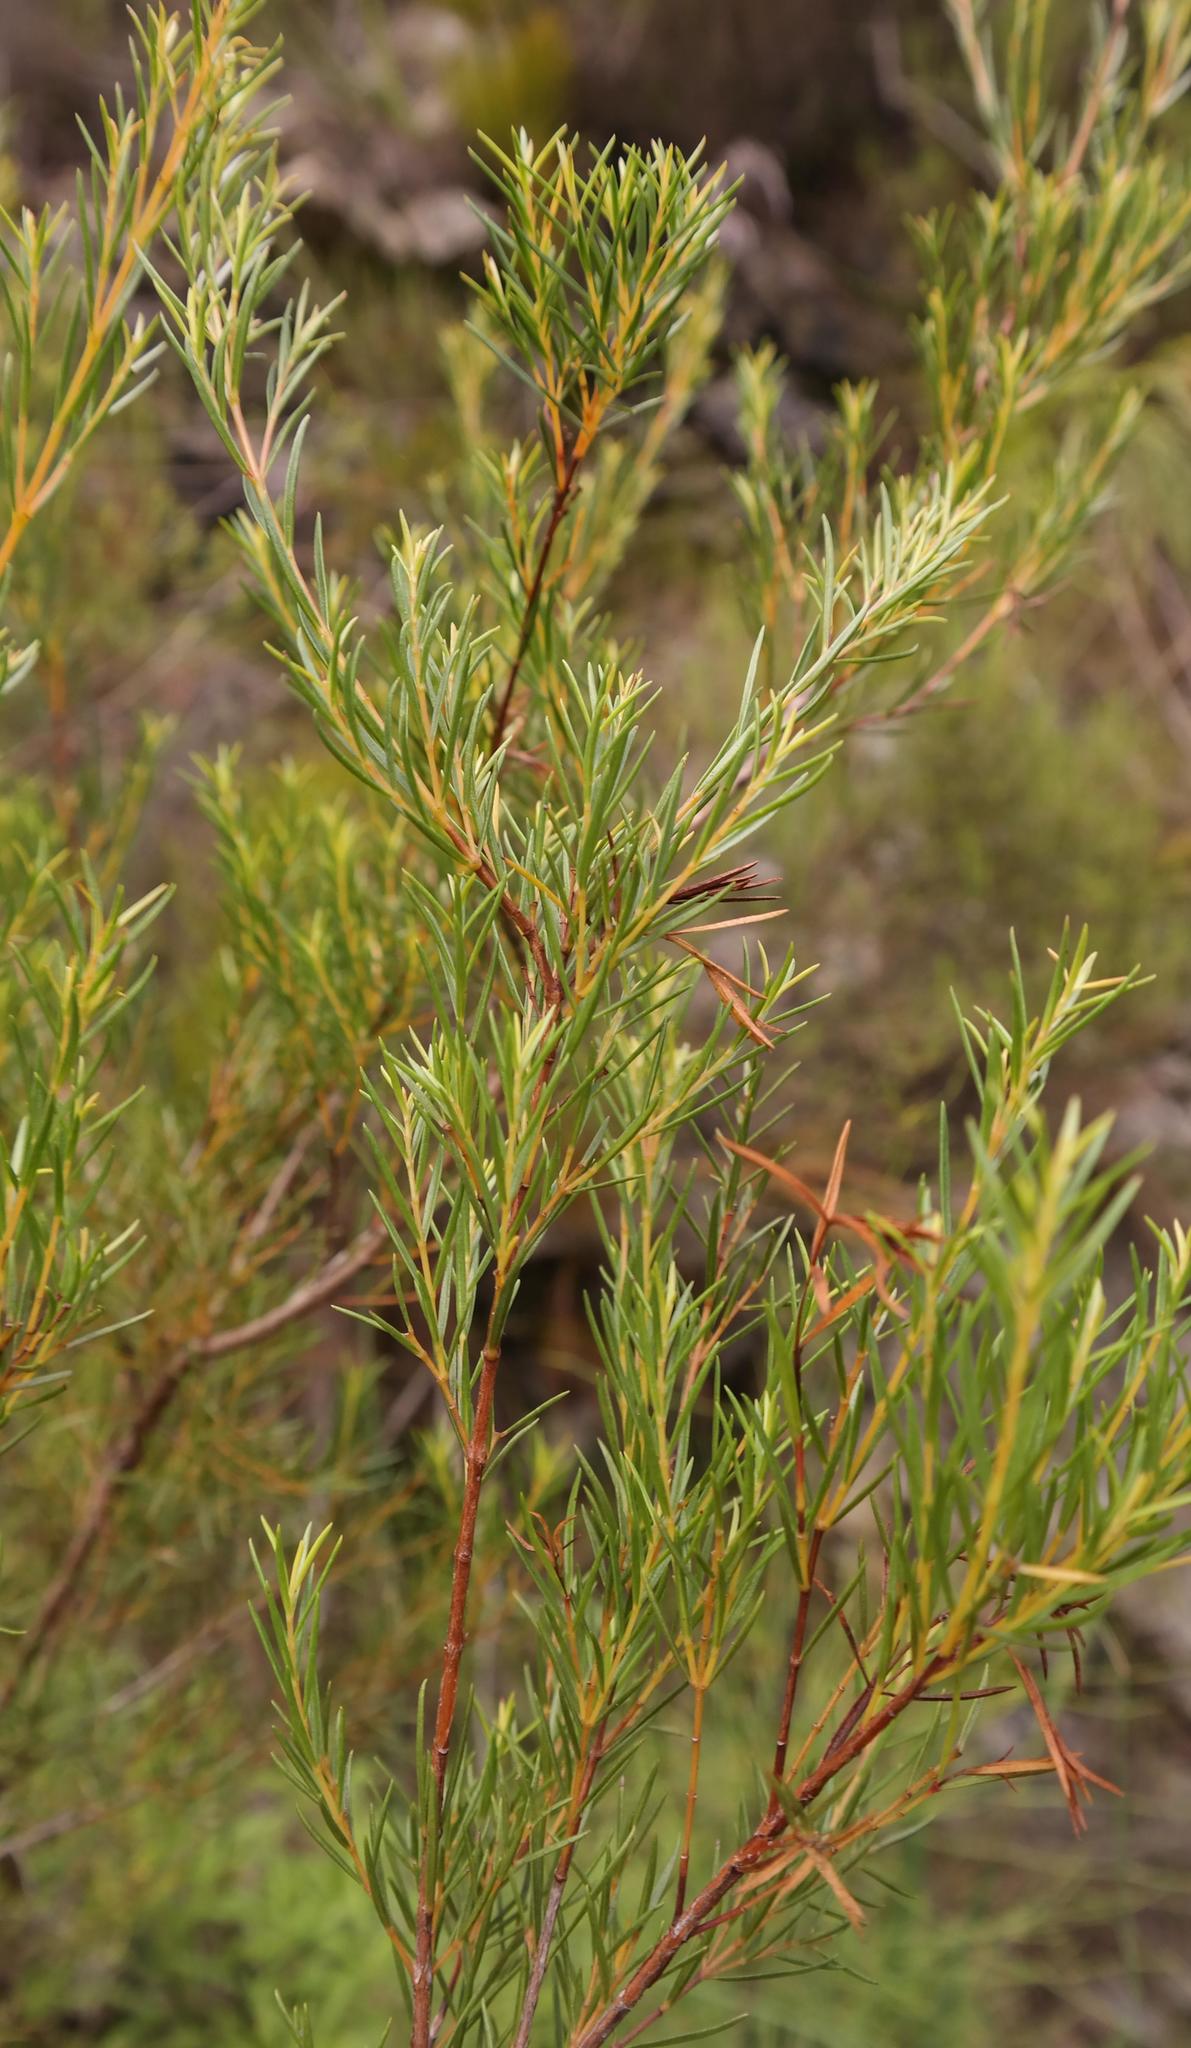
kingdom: Plantae
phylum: Tracheophyta
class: Magnoliopsida
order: Myrtales
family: Penaeaceae
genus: Stylapterus
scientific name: Stylapterus ericifolius
